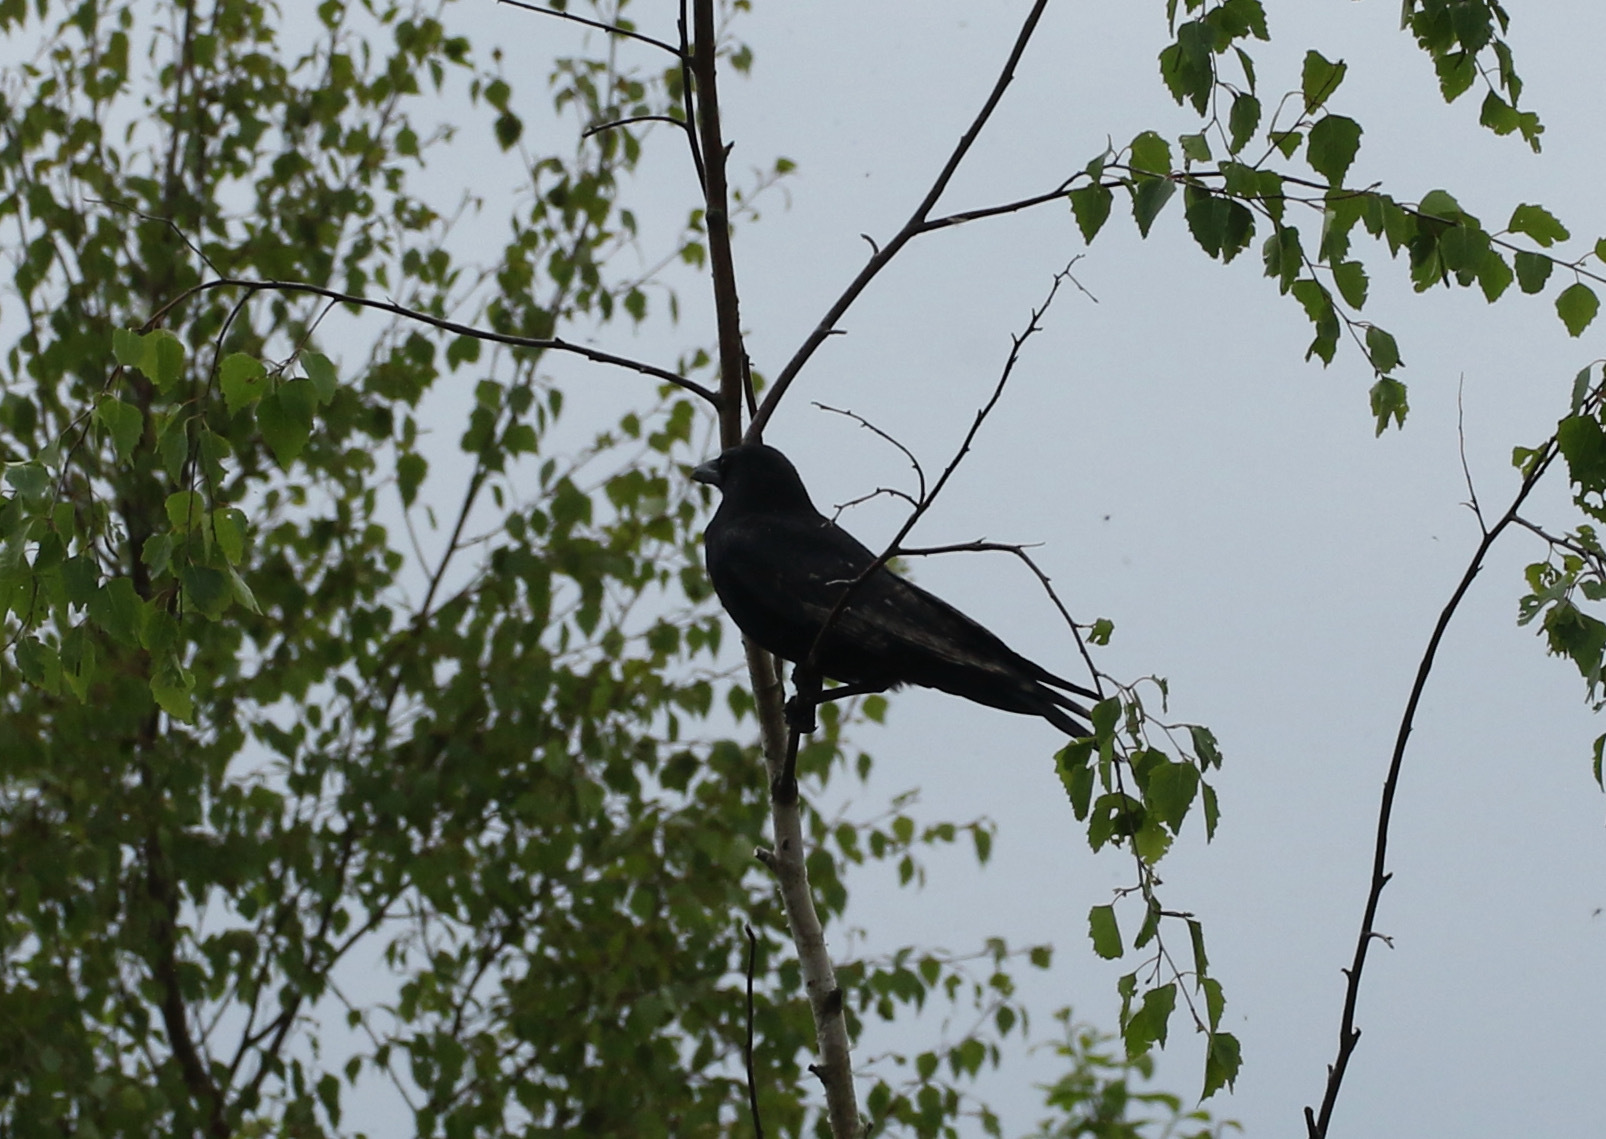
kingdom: Animalia
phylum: Chordata
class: Aves
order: Passeriformes
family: Corvidae
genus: Corvus
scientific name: Corvus corone
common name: Carrion crow
